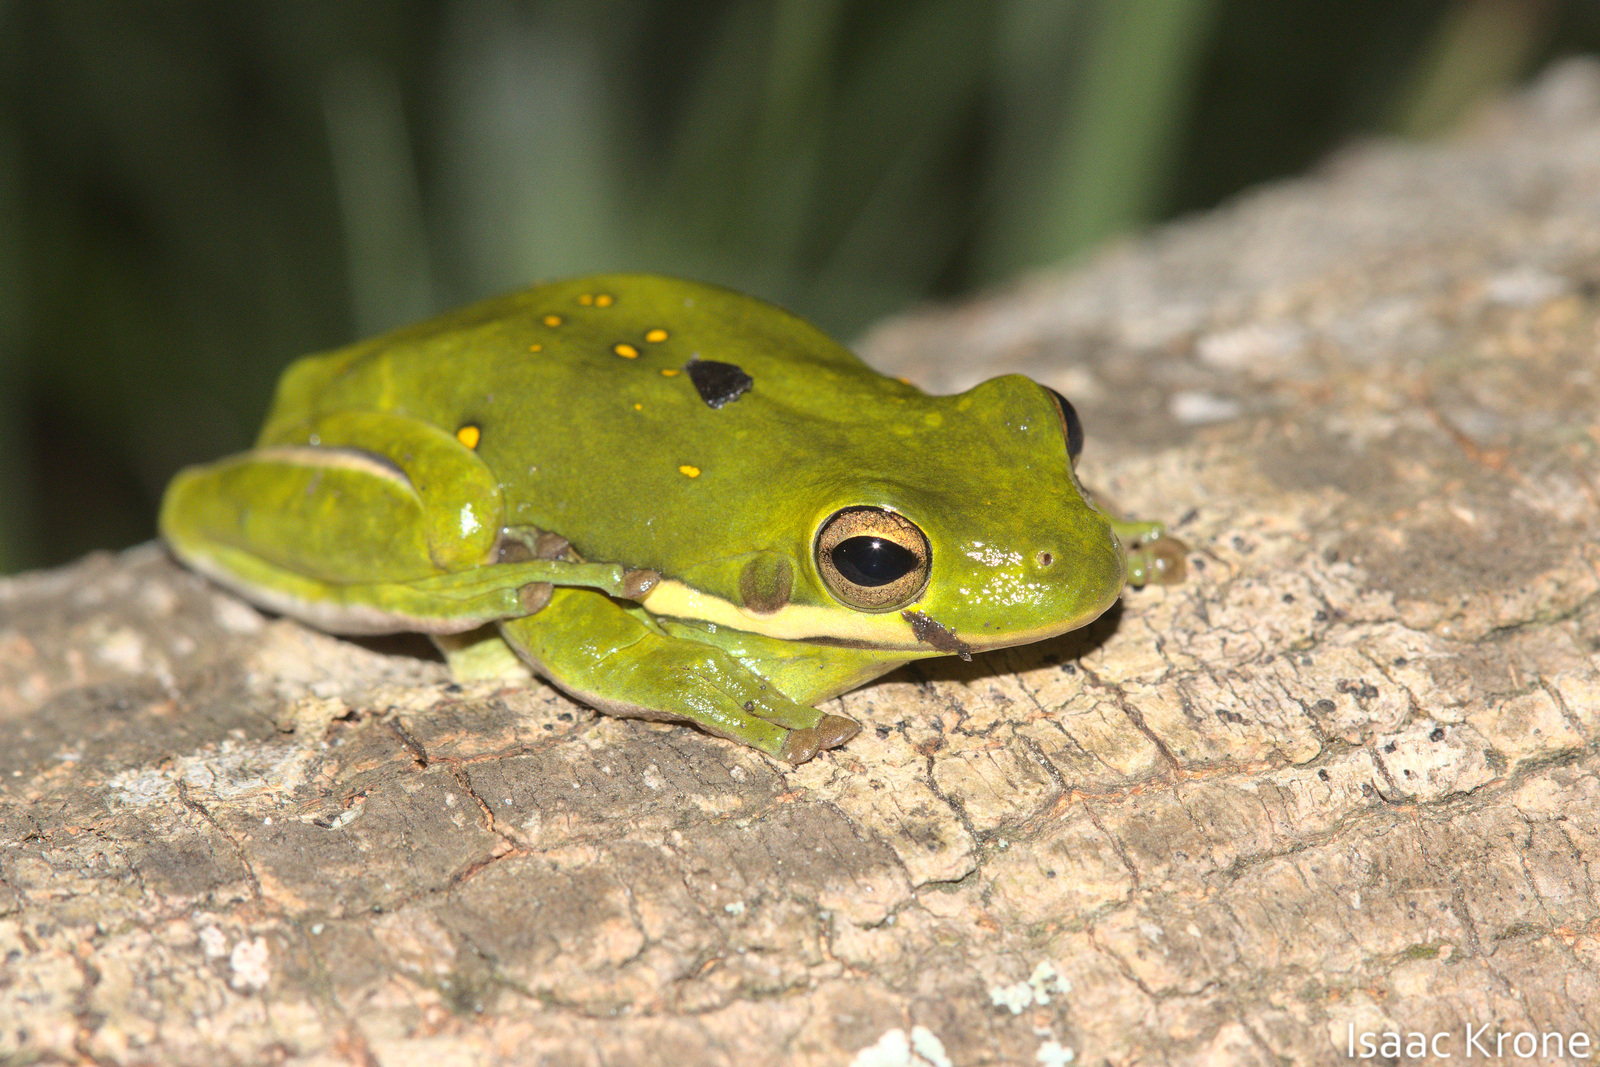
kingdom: Animalia
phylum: Chordata
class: Amphibia
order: Anura
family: Hylidae
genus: Dryophytes
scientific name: Dryophytes cinereus
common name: Green treefrog
